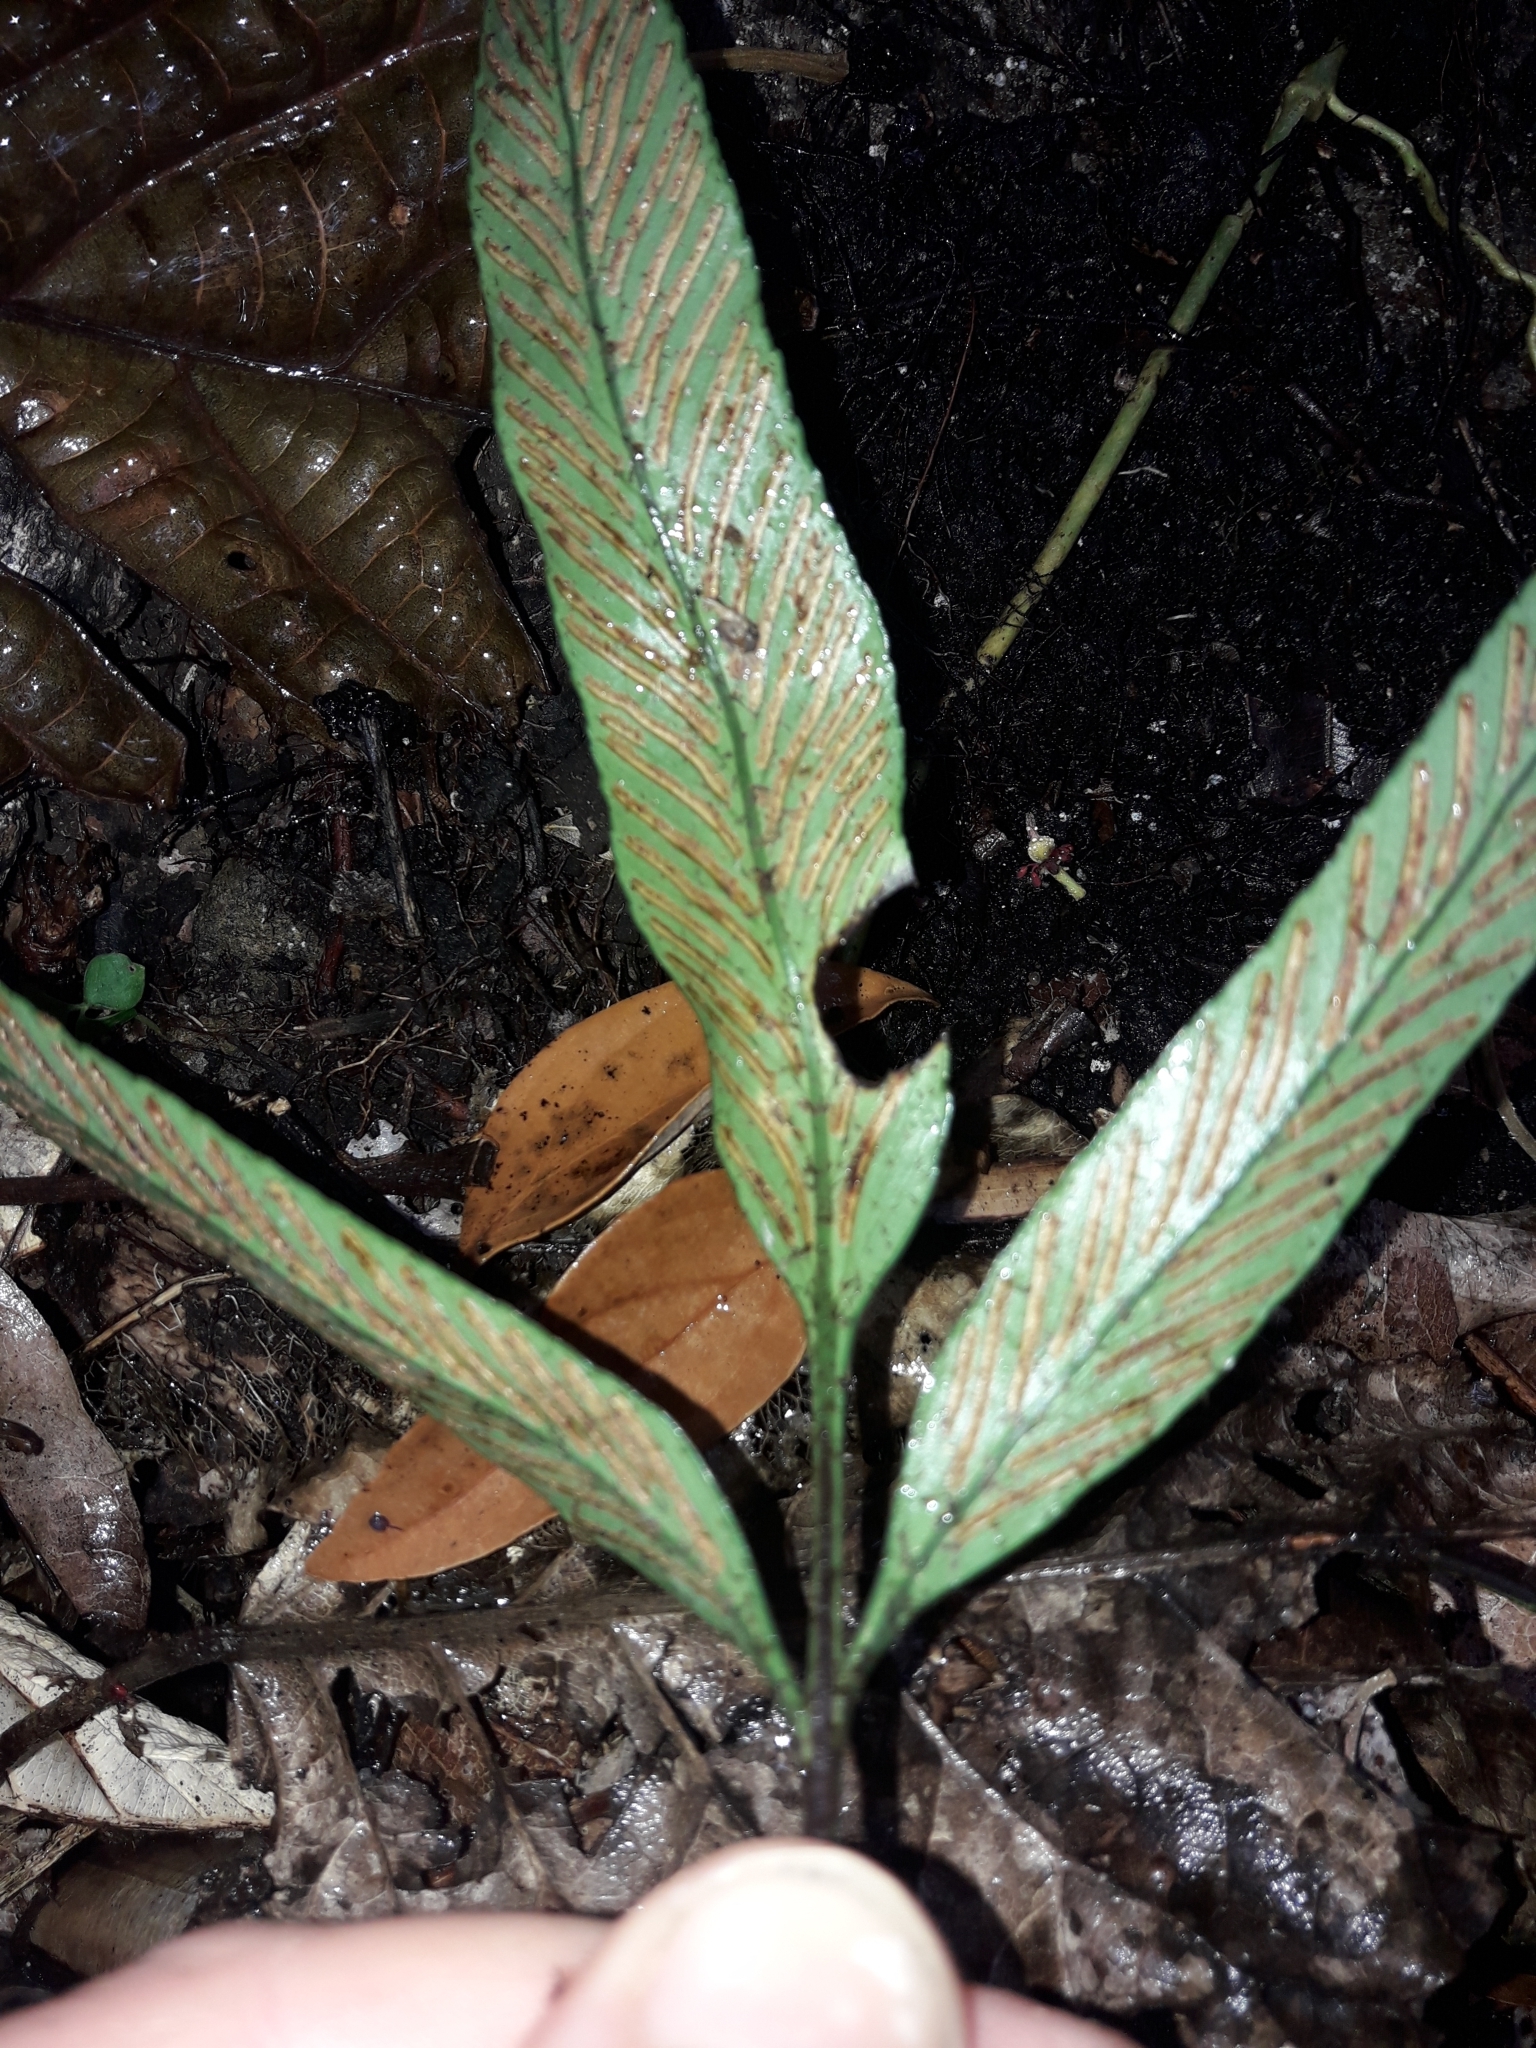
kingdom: Plantae
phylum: Tracheophyta
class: Polypodiopsida
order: Polypodiales
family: Aspleniaceae
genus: Asplenium
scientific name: Asplenium oligolepidum
